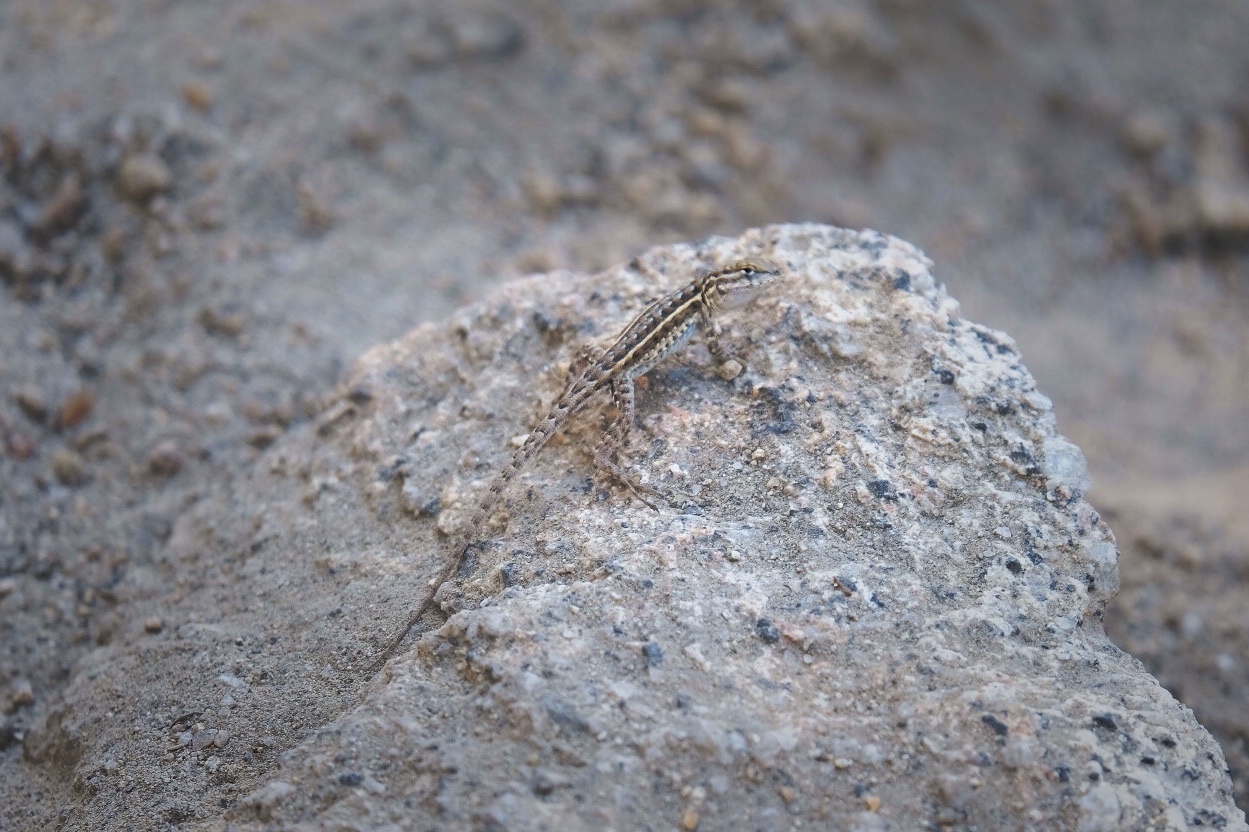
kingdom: Animalia
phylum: Chordata
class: Squamata
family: Phrynosomatidae
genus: Uta
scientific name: Uta stansburiana
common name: Side-blotched lizard
